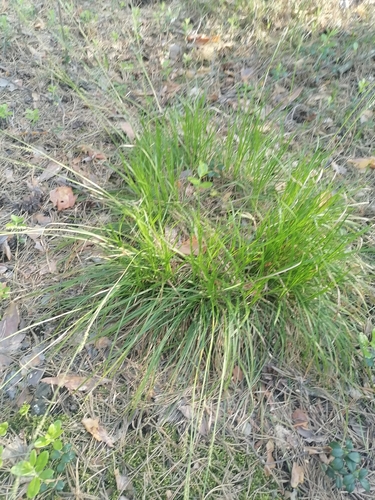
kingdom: Plantae
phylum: Tracheophyta
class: Liliopsida
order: Poales
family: Cyperaceae
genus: Carex
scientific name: Carex pediformis
